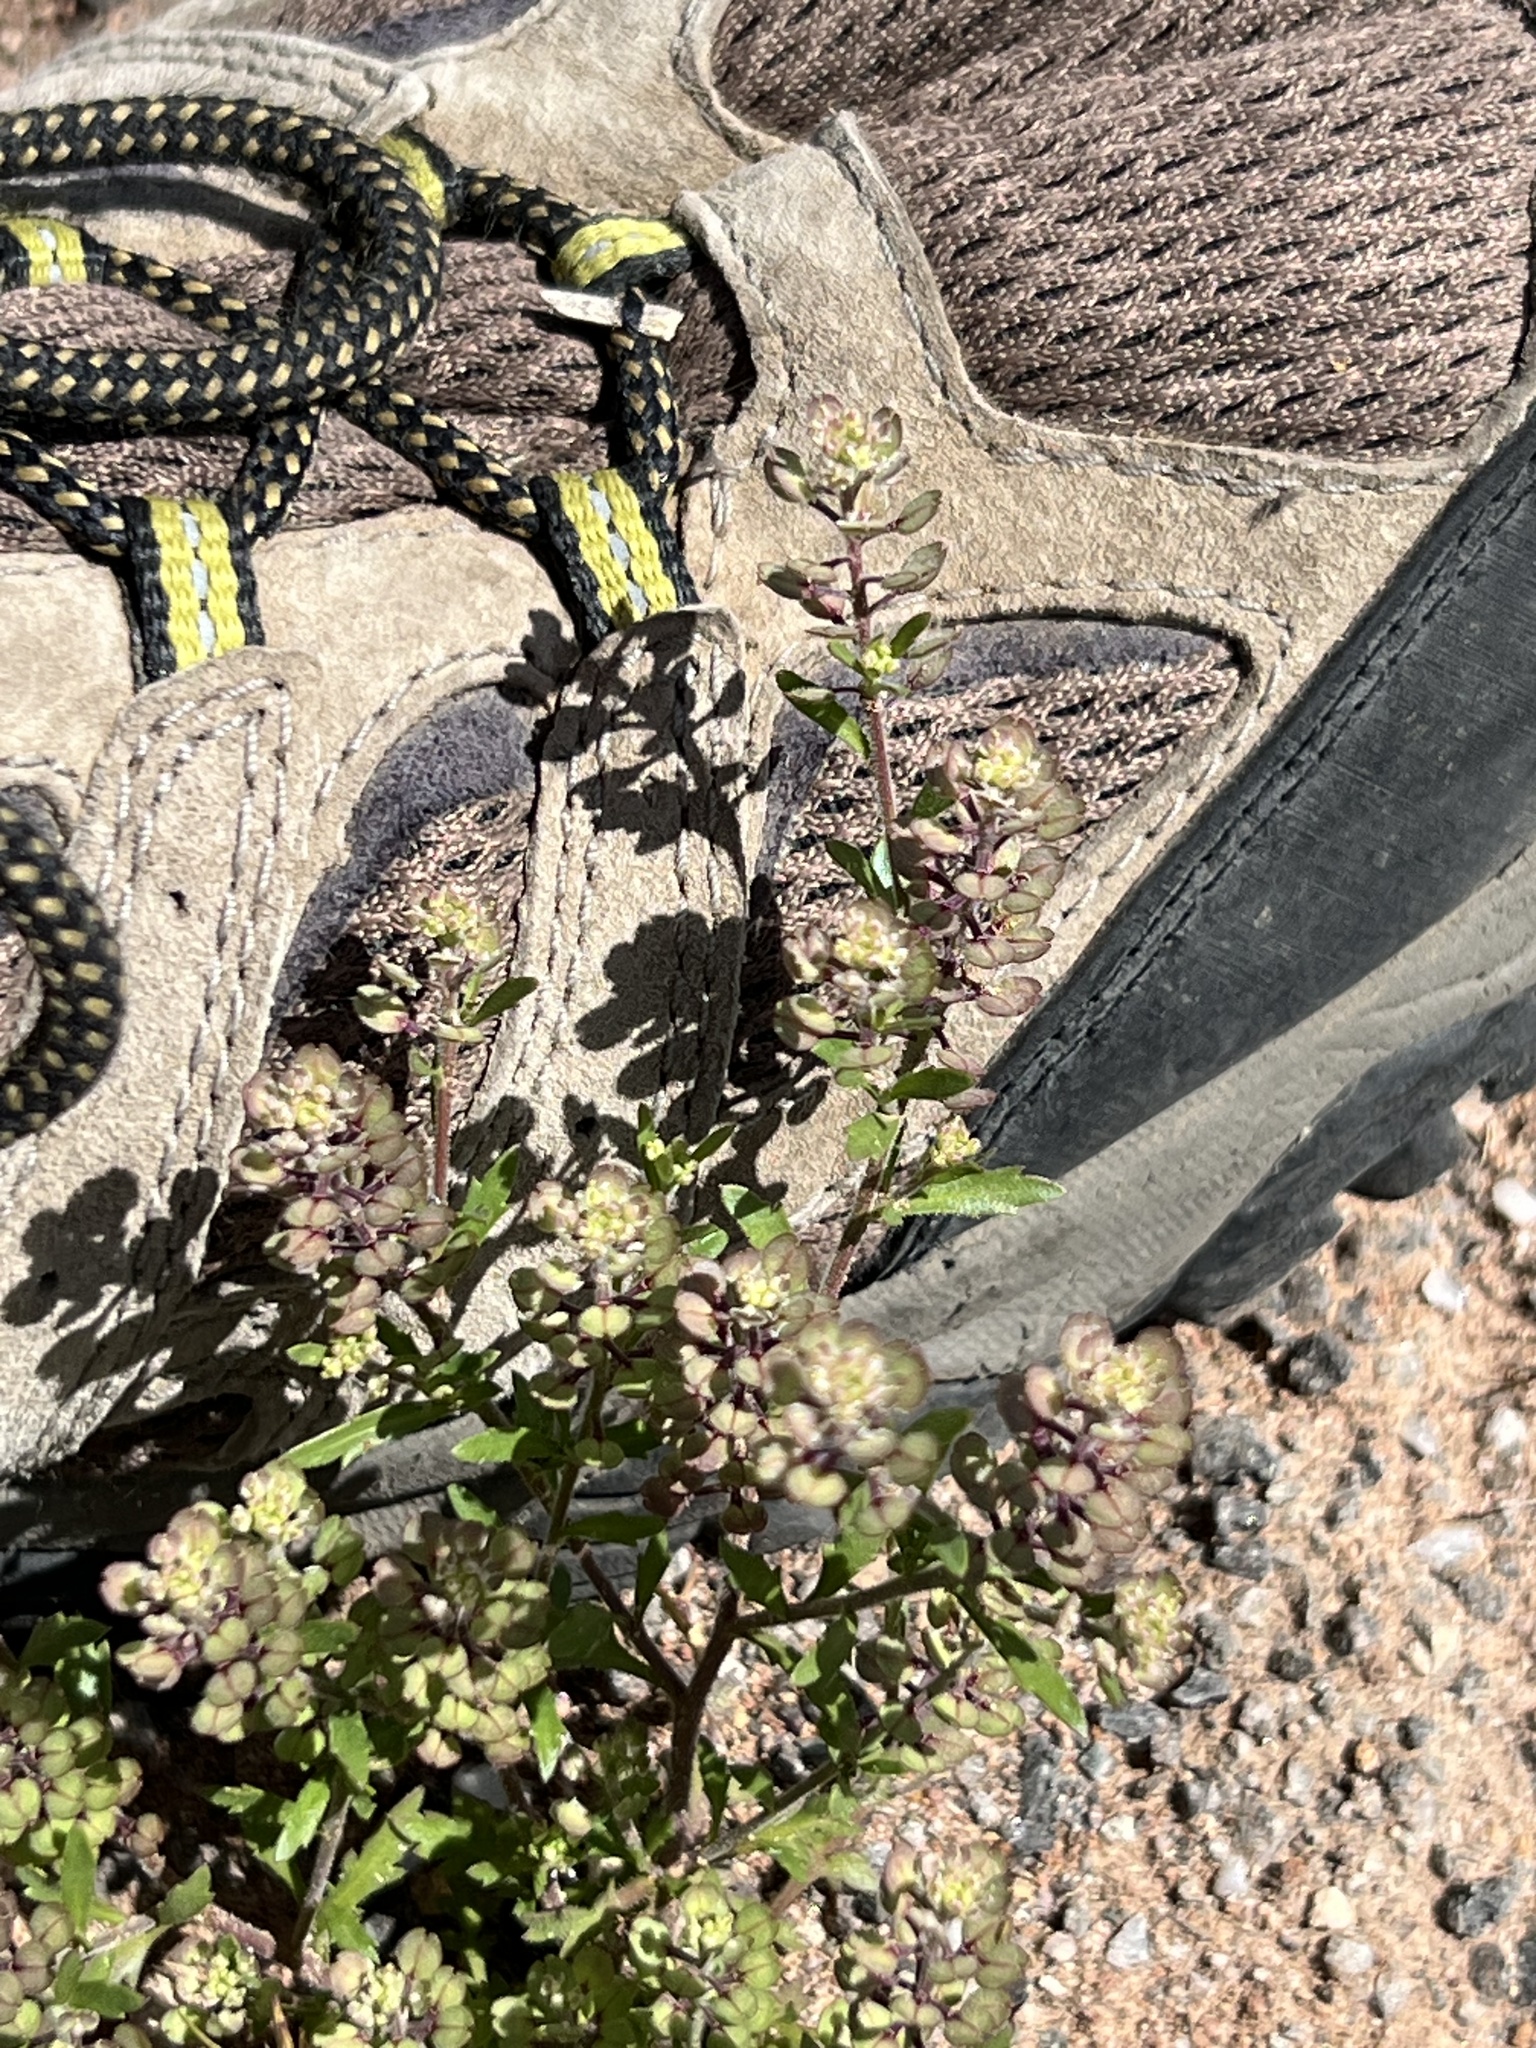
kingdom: Plantae
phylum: Tracheophyta
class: Magnoliopsida
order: Brassicales
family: Brassicaceae
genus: Lepidium
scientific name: Lepidium lasiocarpum
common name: Hairy-pod pepperwort
